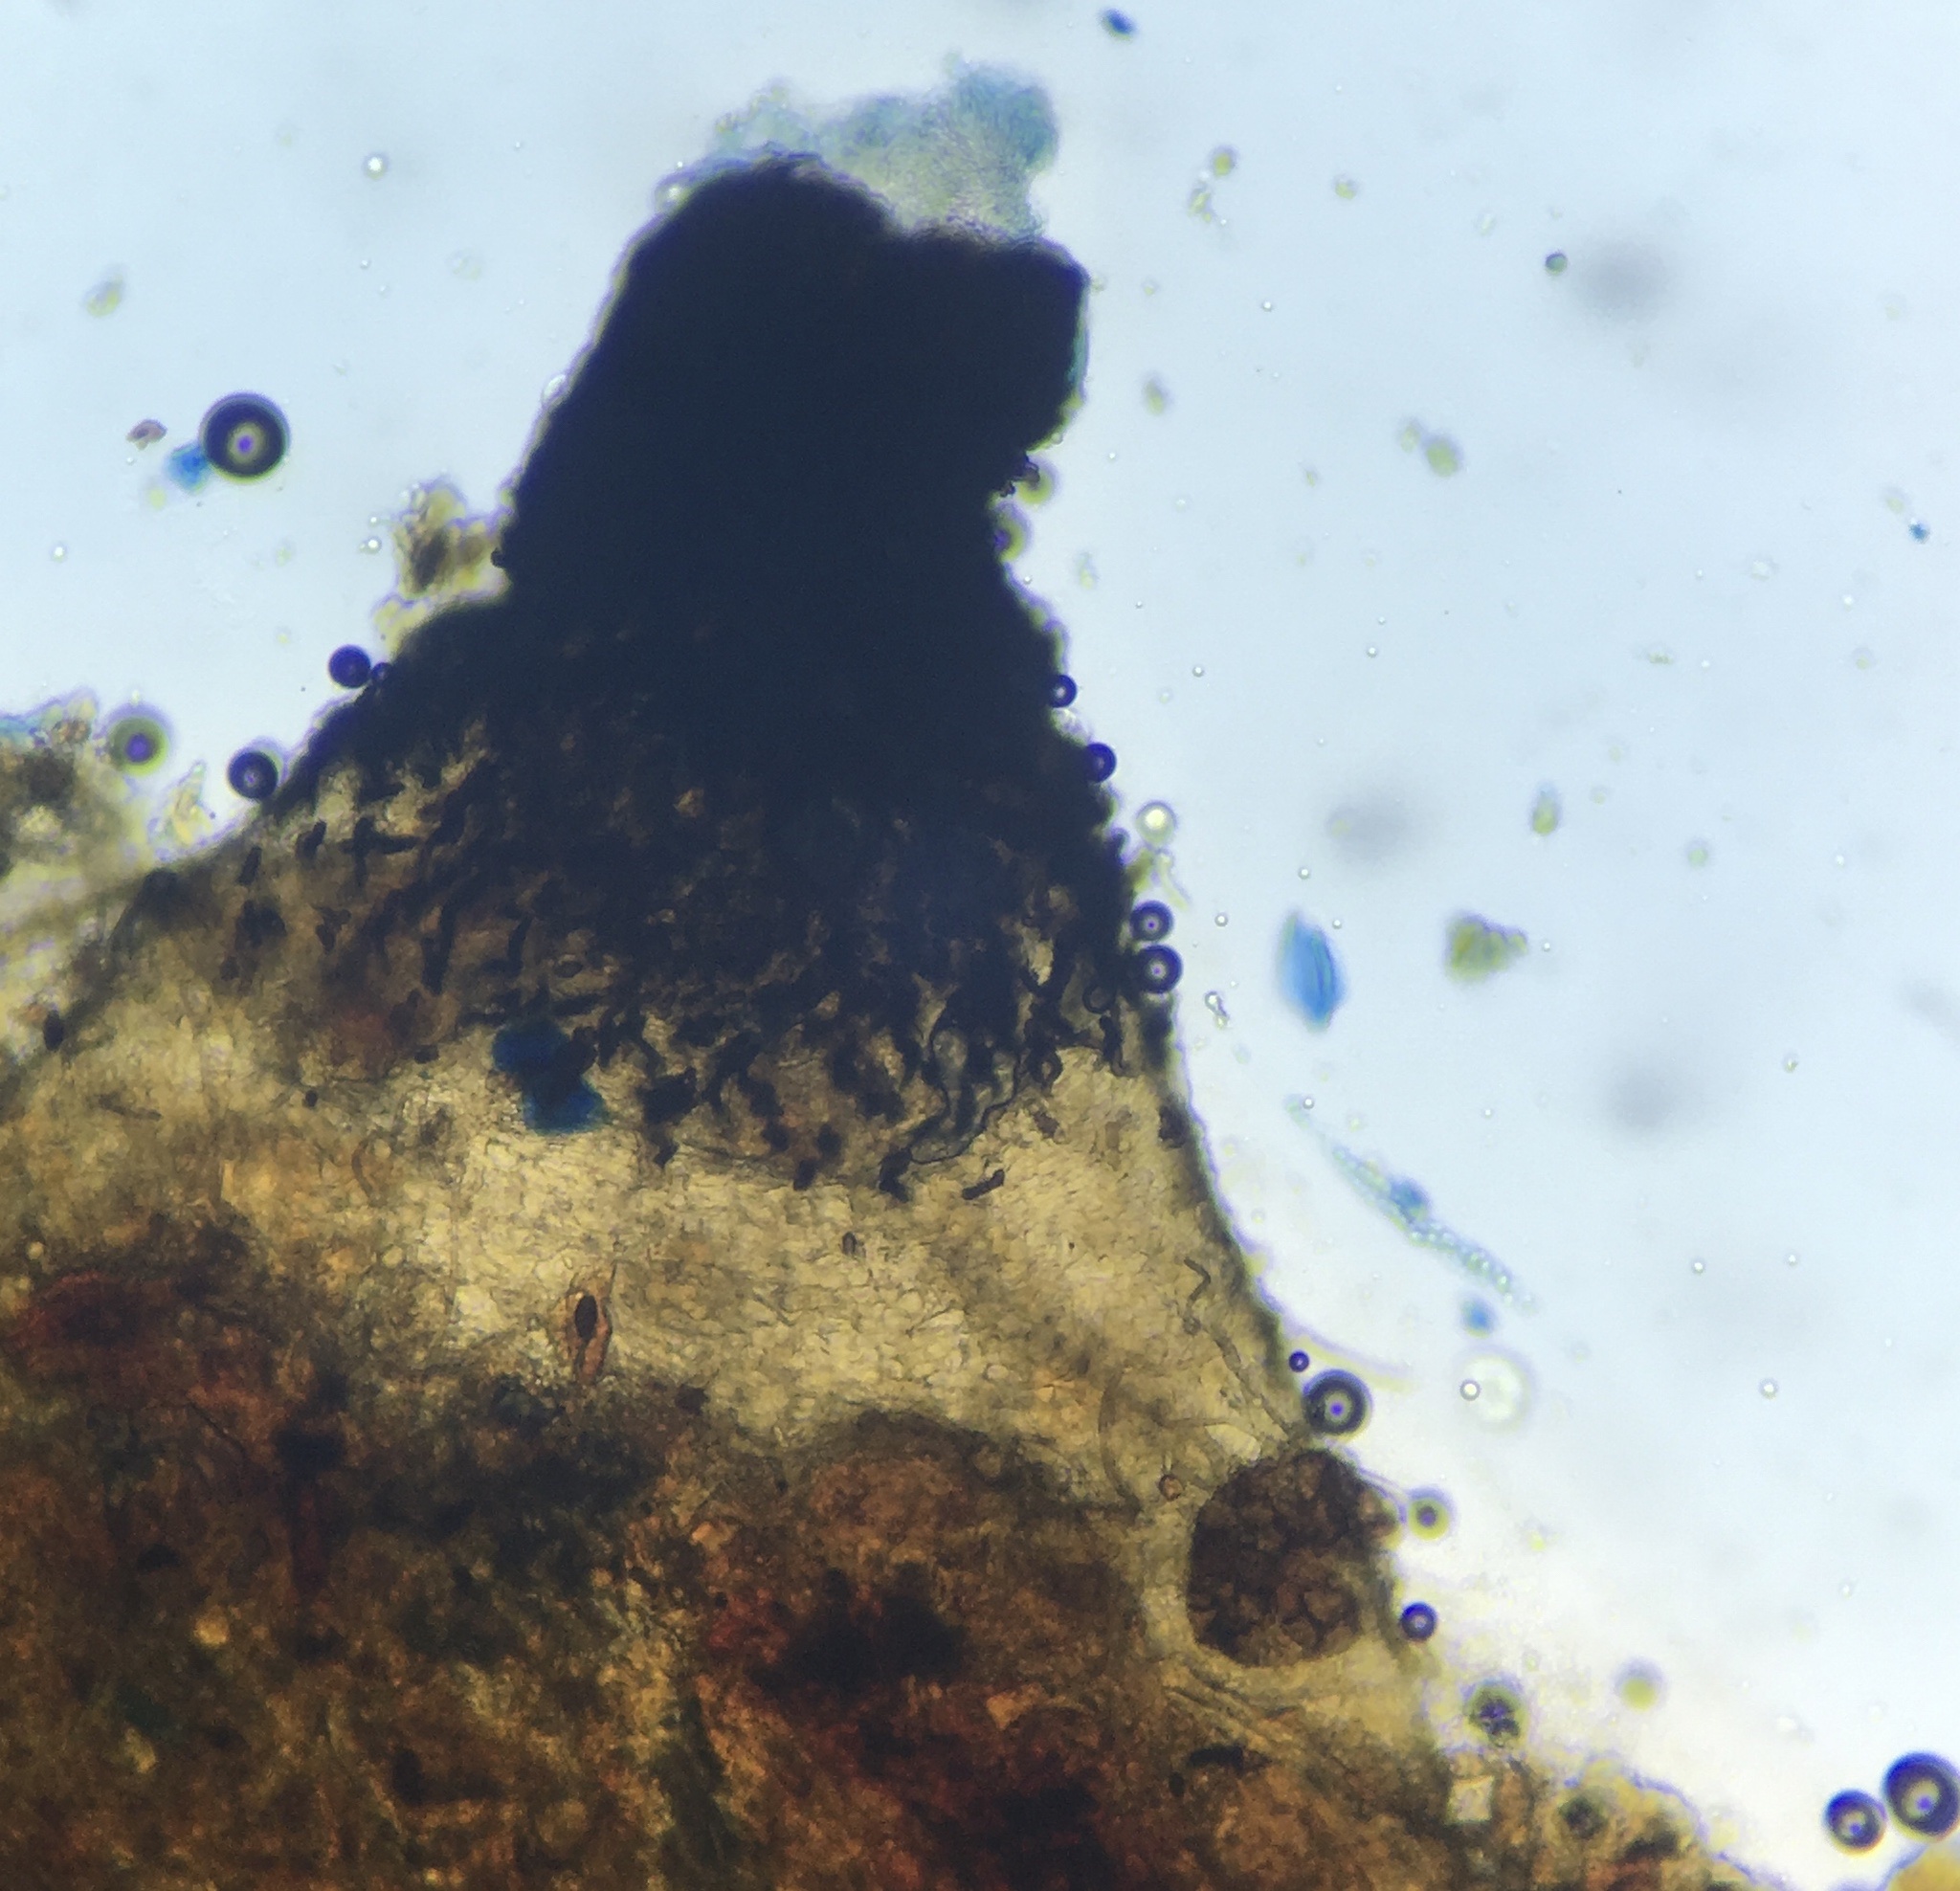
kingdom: Fungi
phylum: Ascomycota
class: Sordariomycetes
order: Sordariales
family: Naviculisporaceae
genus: Rhypophila
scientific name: Rhypophila myriospora
